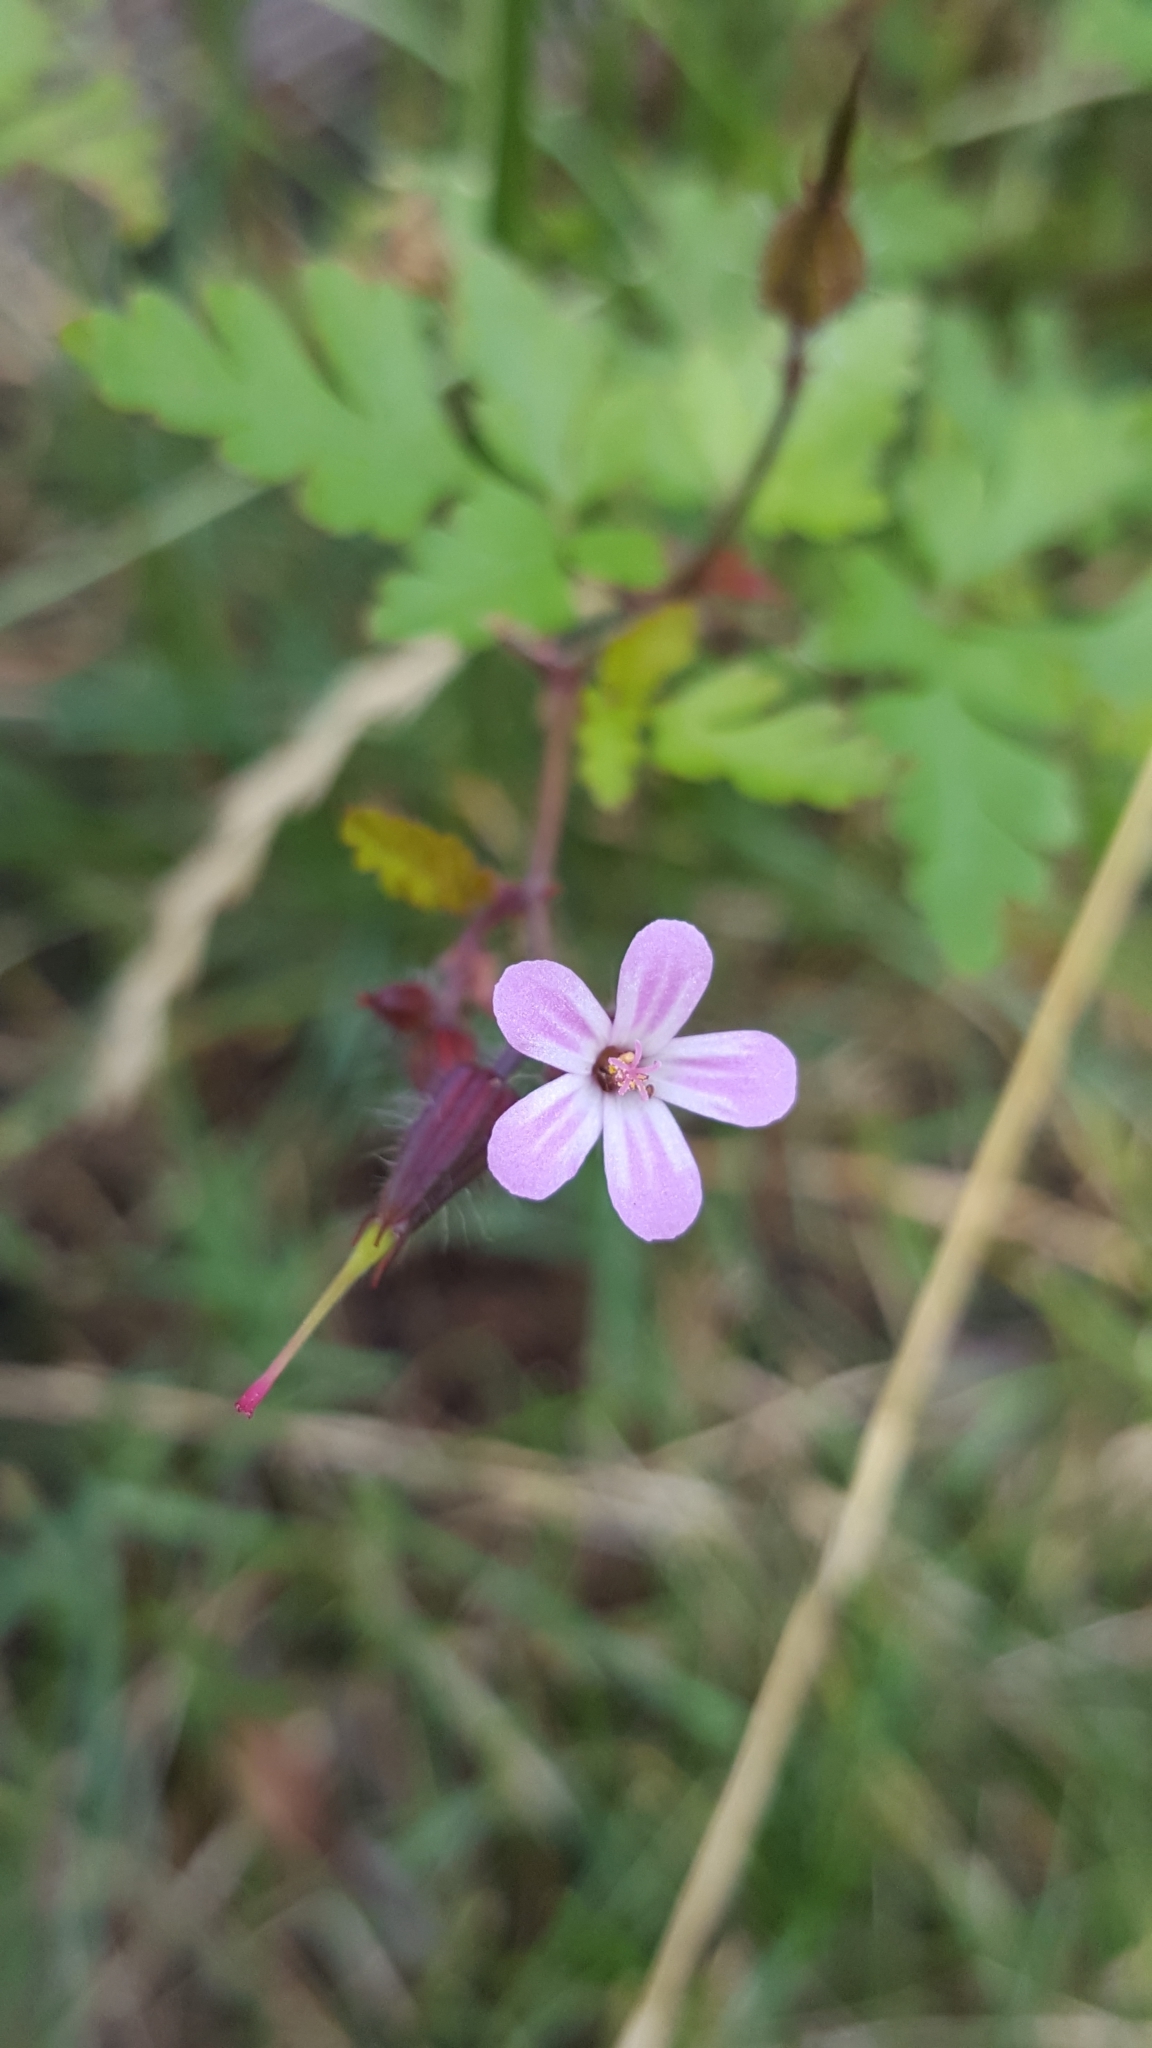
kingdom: Plantae
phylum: Tracheophyta
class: Magnoliopsida
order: Geraniales
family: Geraniaceae
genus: Geranium
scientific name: Geranium robertianum
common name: Herb-robert
